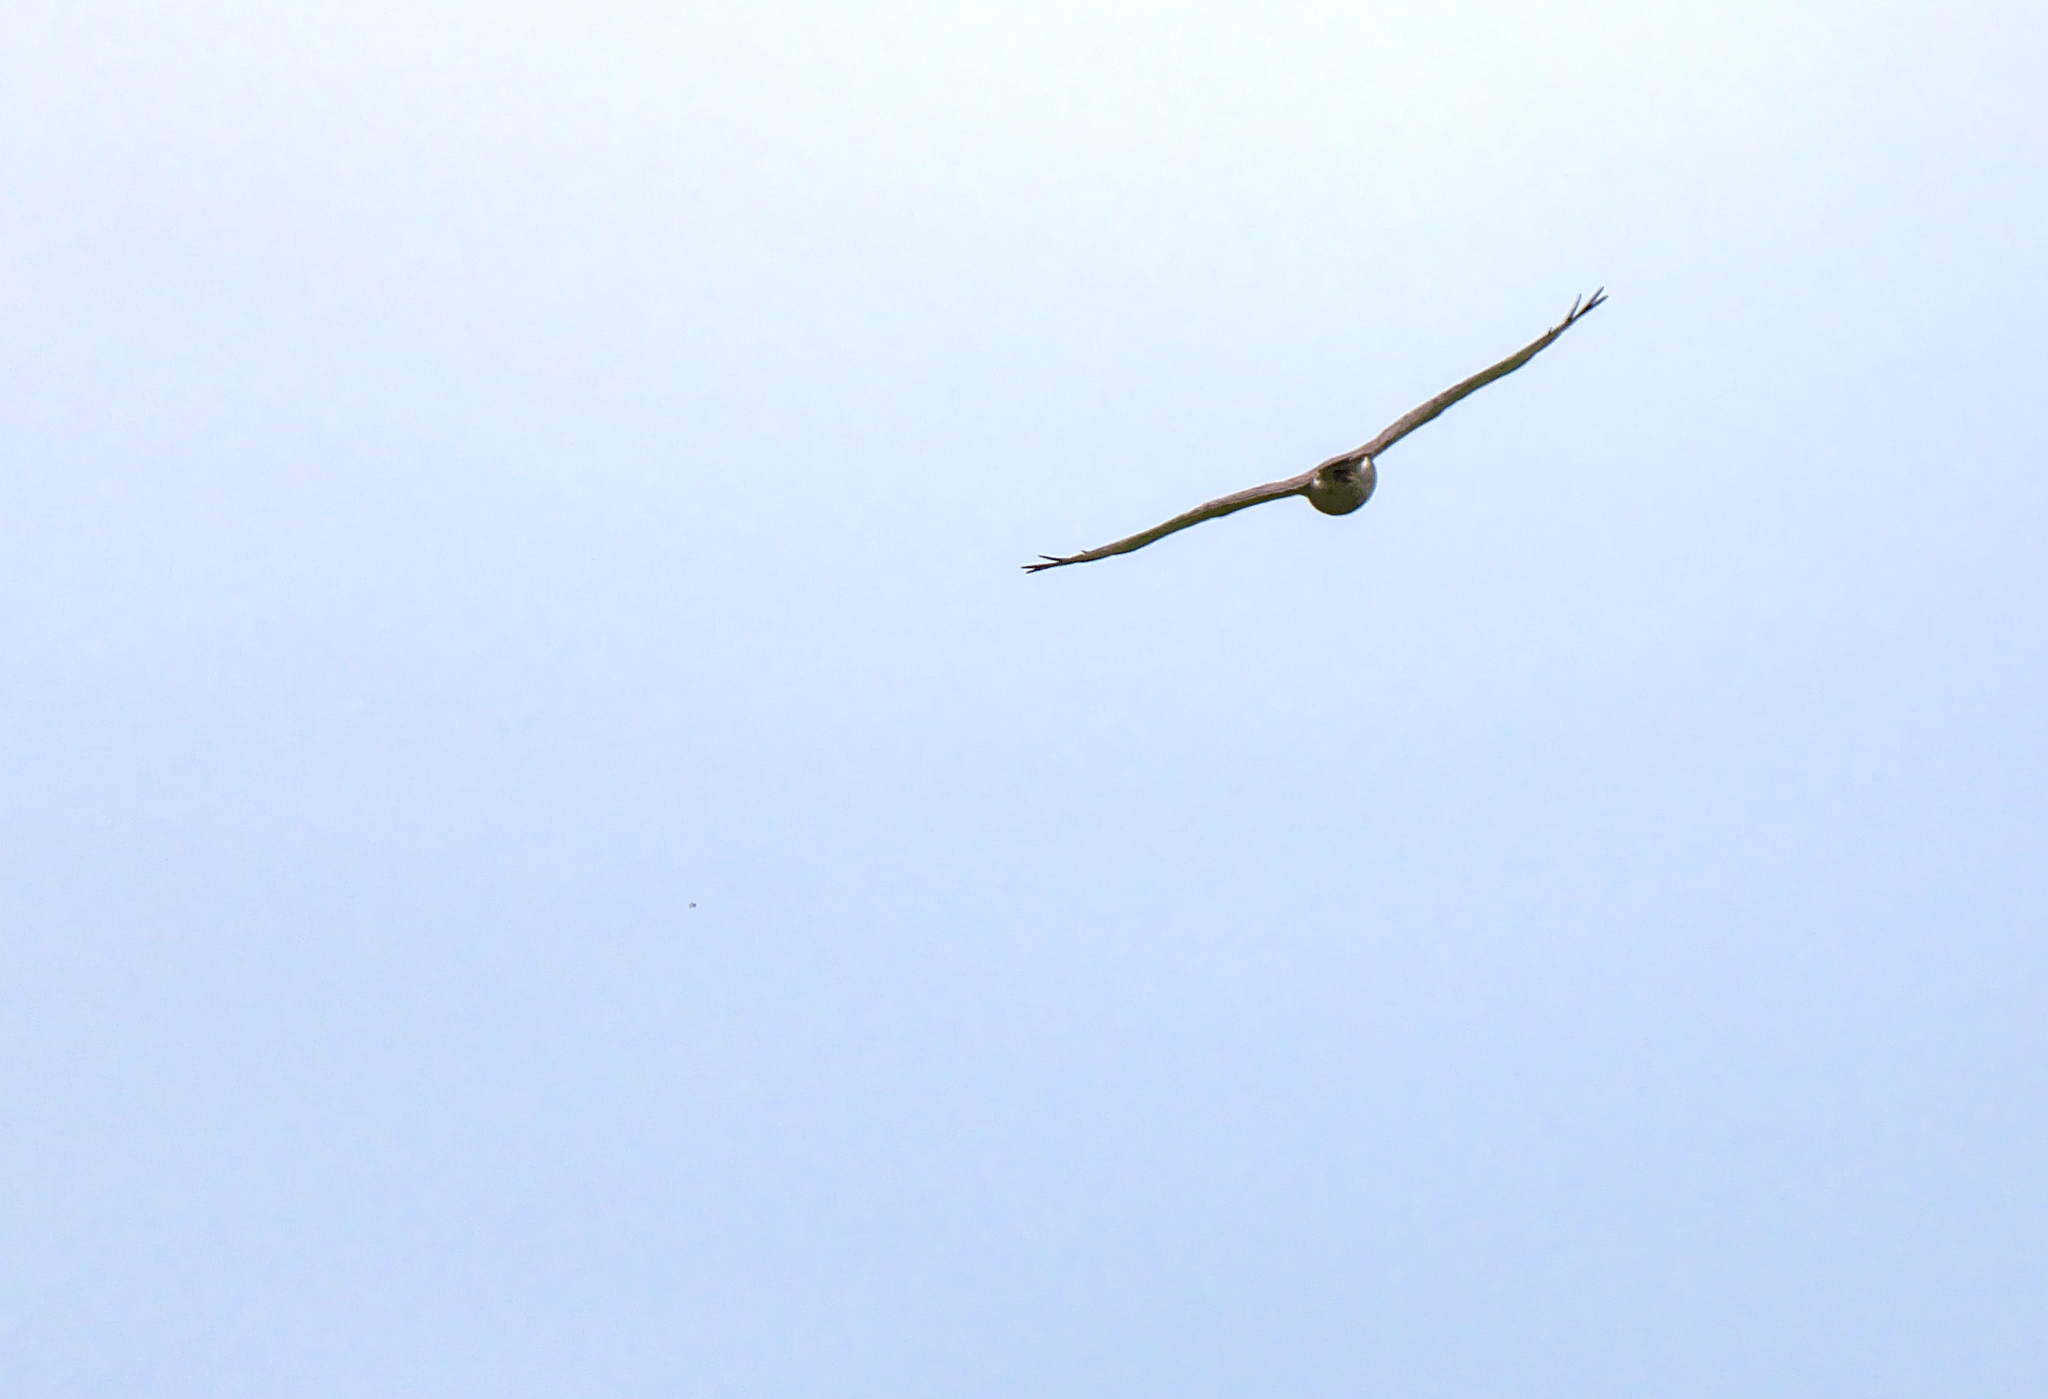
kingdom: Animalia
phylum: Chordata
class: Aves
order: Accipitriformes
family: Accipitridae
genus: Buteo
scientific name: Buteo platypterus
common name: Broad-winged hawk
